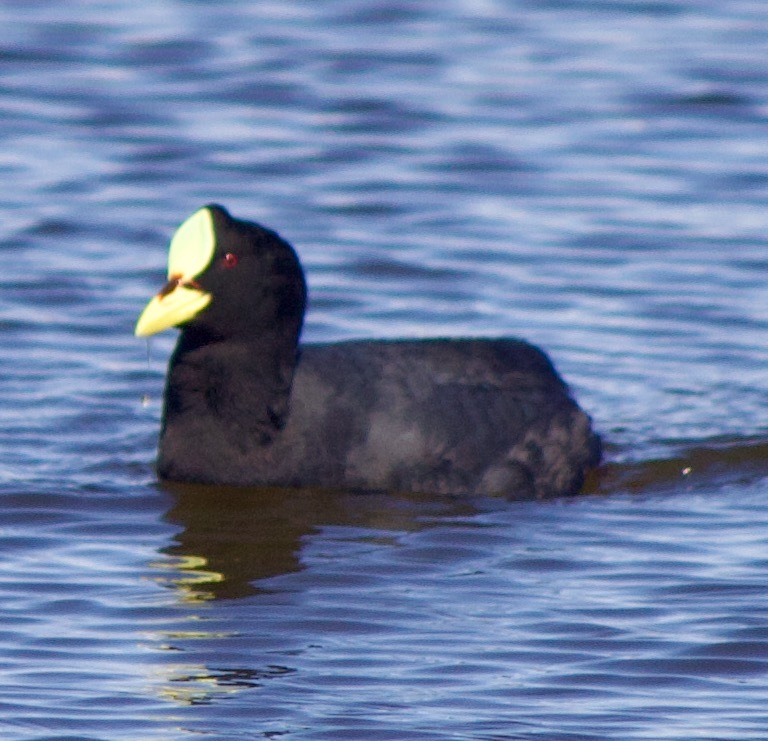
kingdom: Animalia
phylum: Chordata
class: Aves
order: Gruiformes
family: Rallidae
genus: Fulica
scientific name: Fulica armillata
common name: Red-gartered coot
